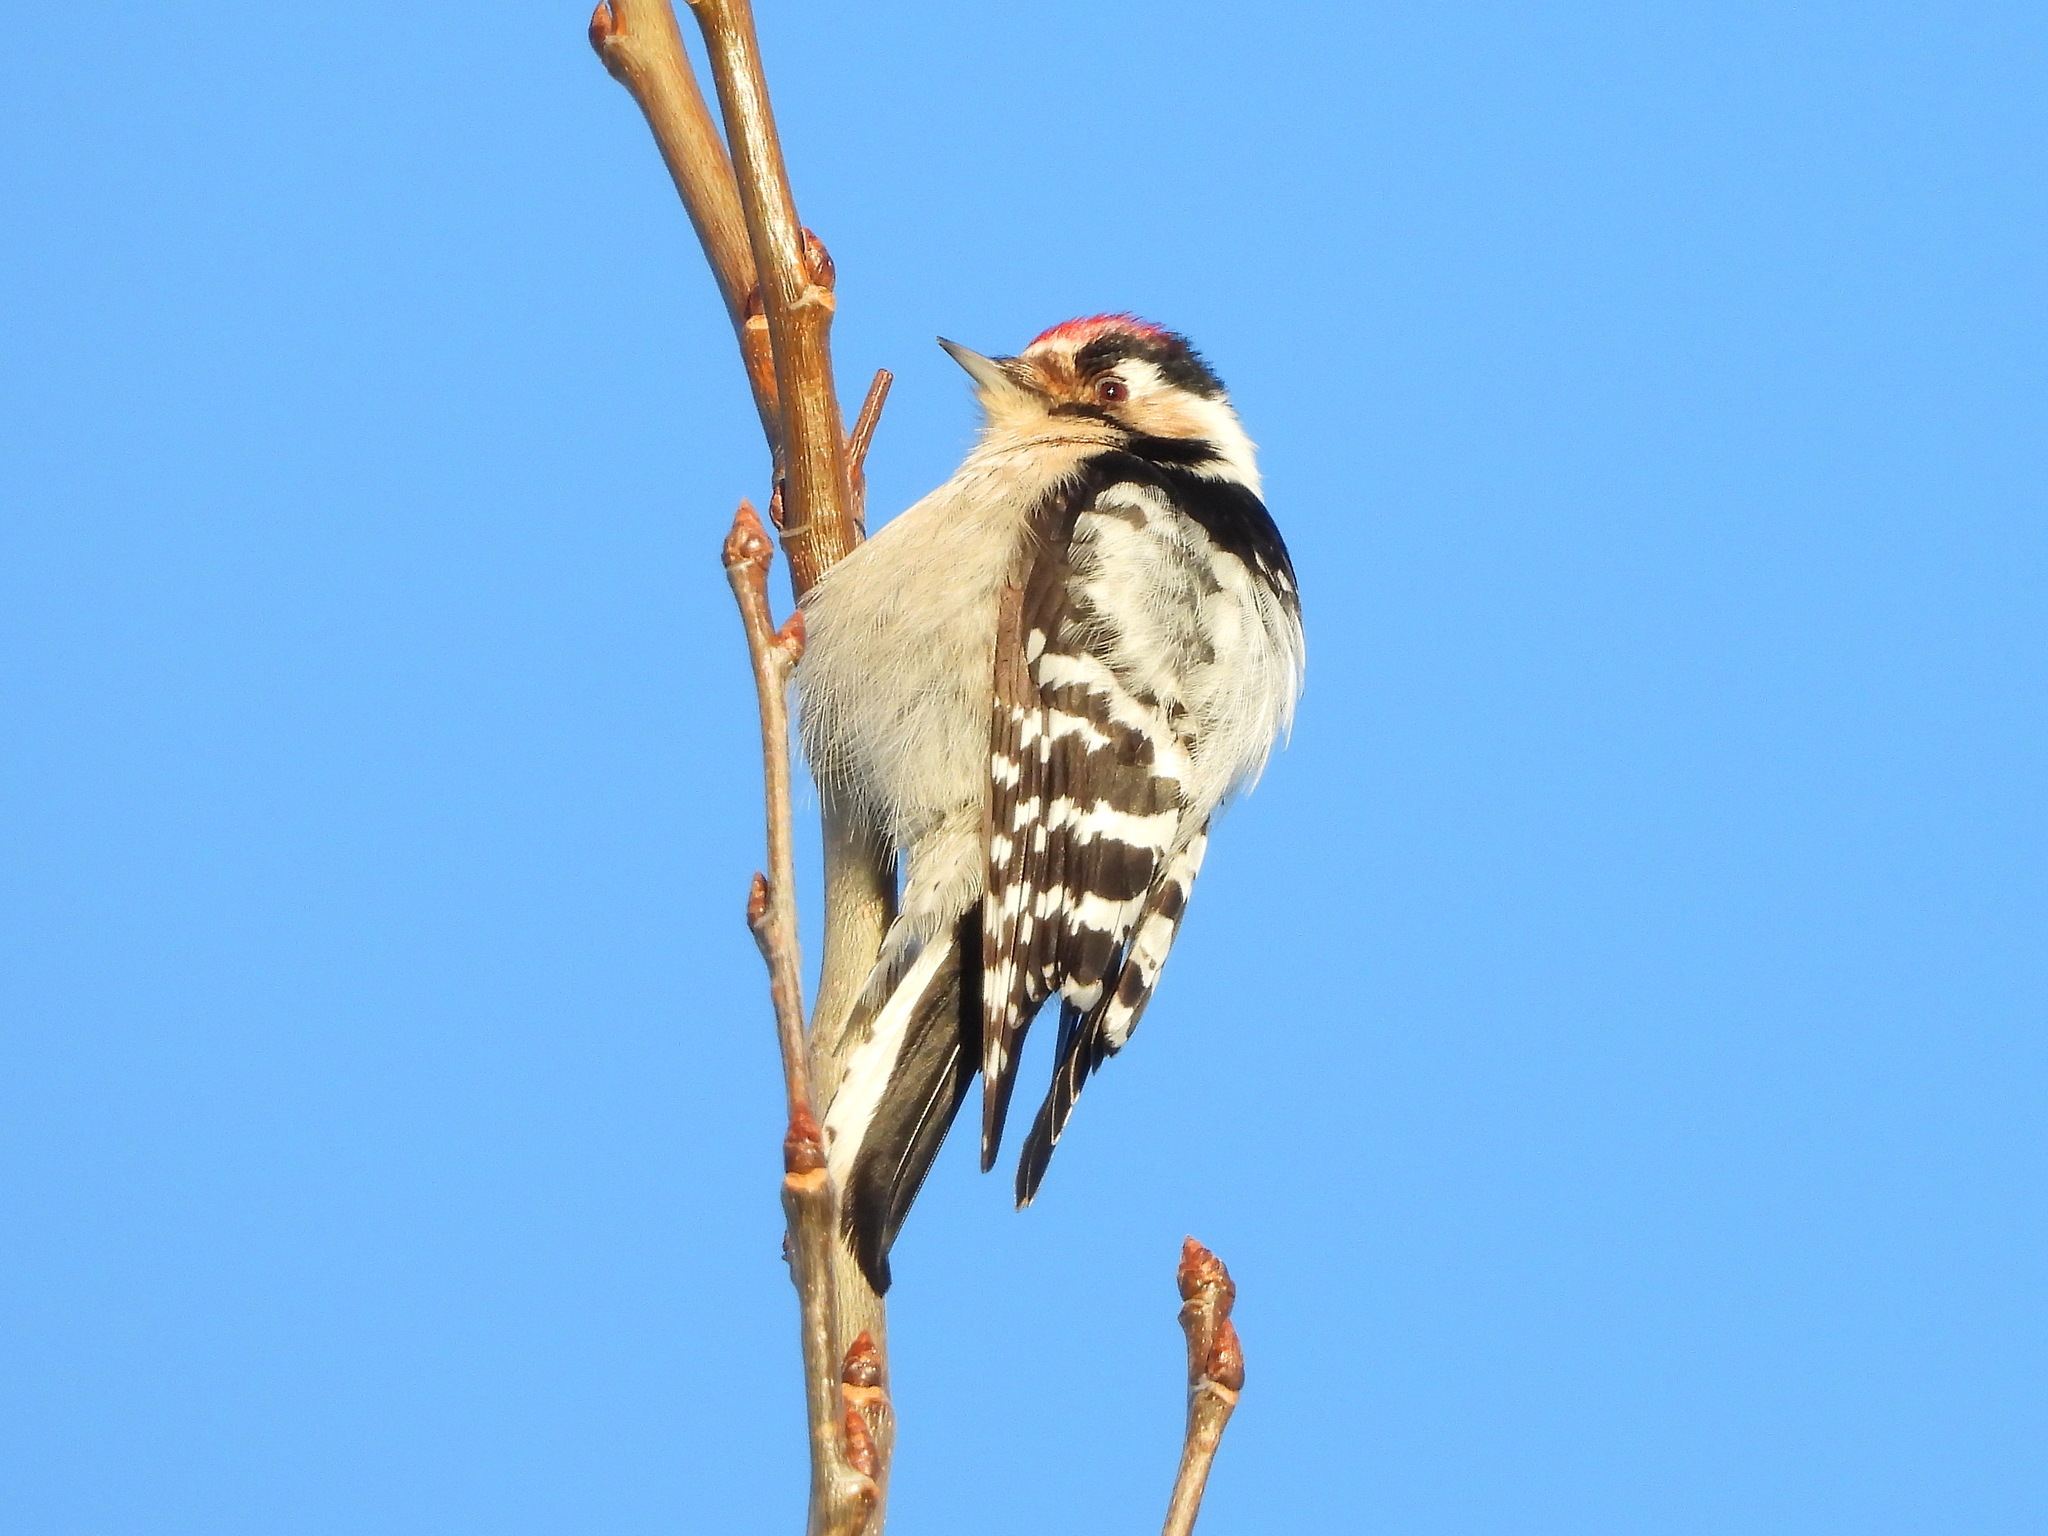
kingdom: Animalia
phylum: Chordata
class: Aves
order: Piciformes
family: Picidae
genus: Dryobates
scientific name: Dryobates minor
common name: Lesser spotted woodpecker
